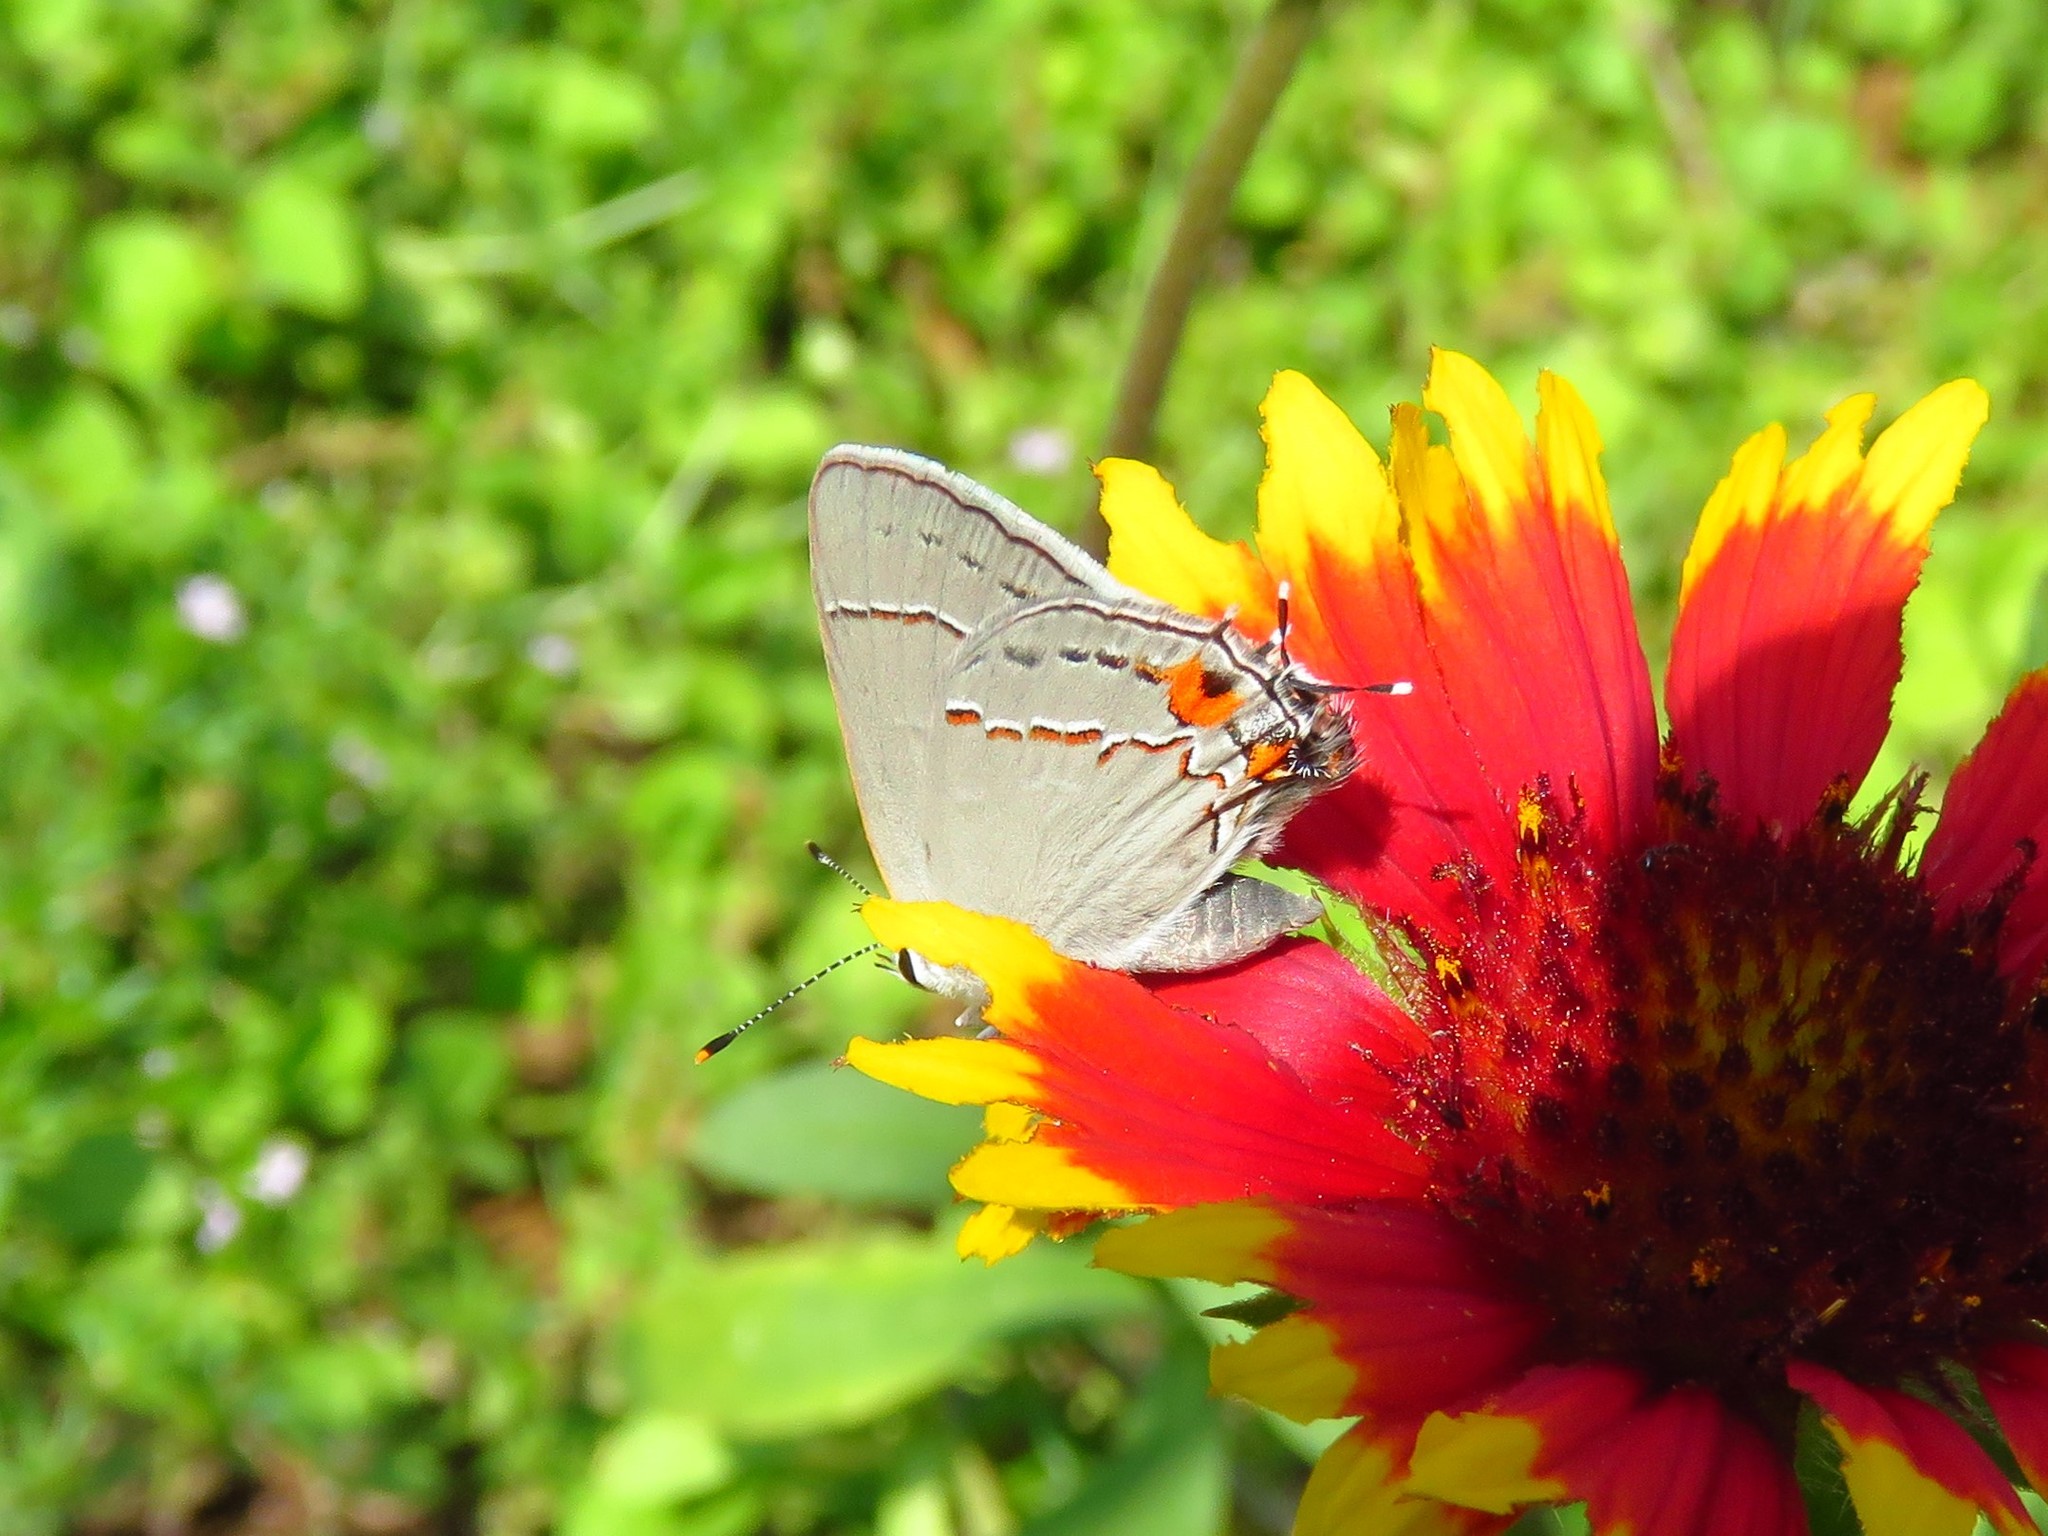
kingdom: Animalia
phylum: Arthropoda
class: Insecta
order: Lepidoptera
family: Lycaenidae
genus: Strymon
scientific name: Strymon melinus
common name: Gray hairstreak
